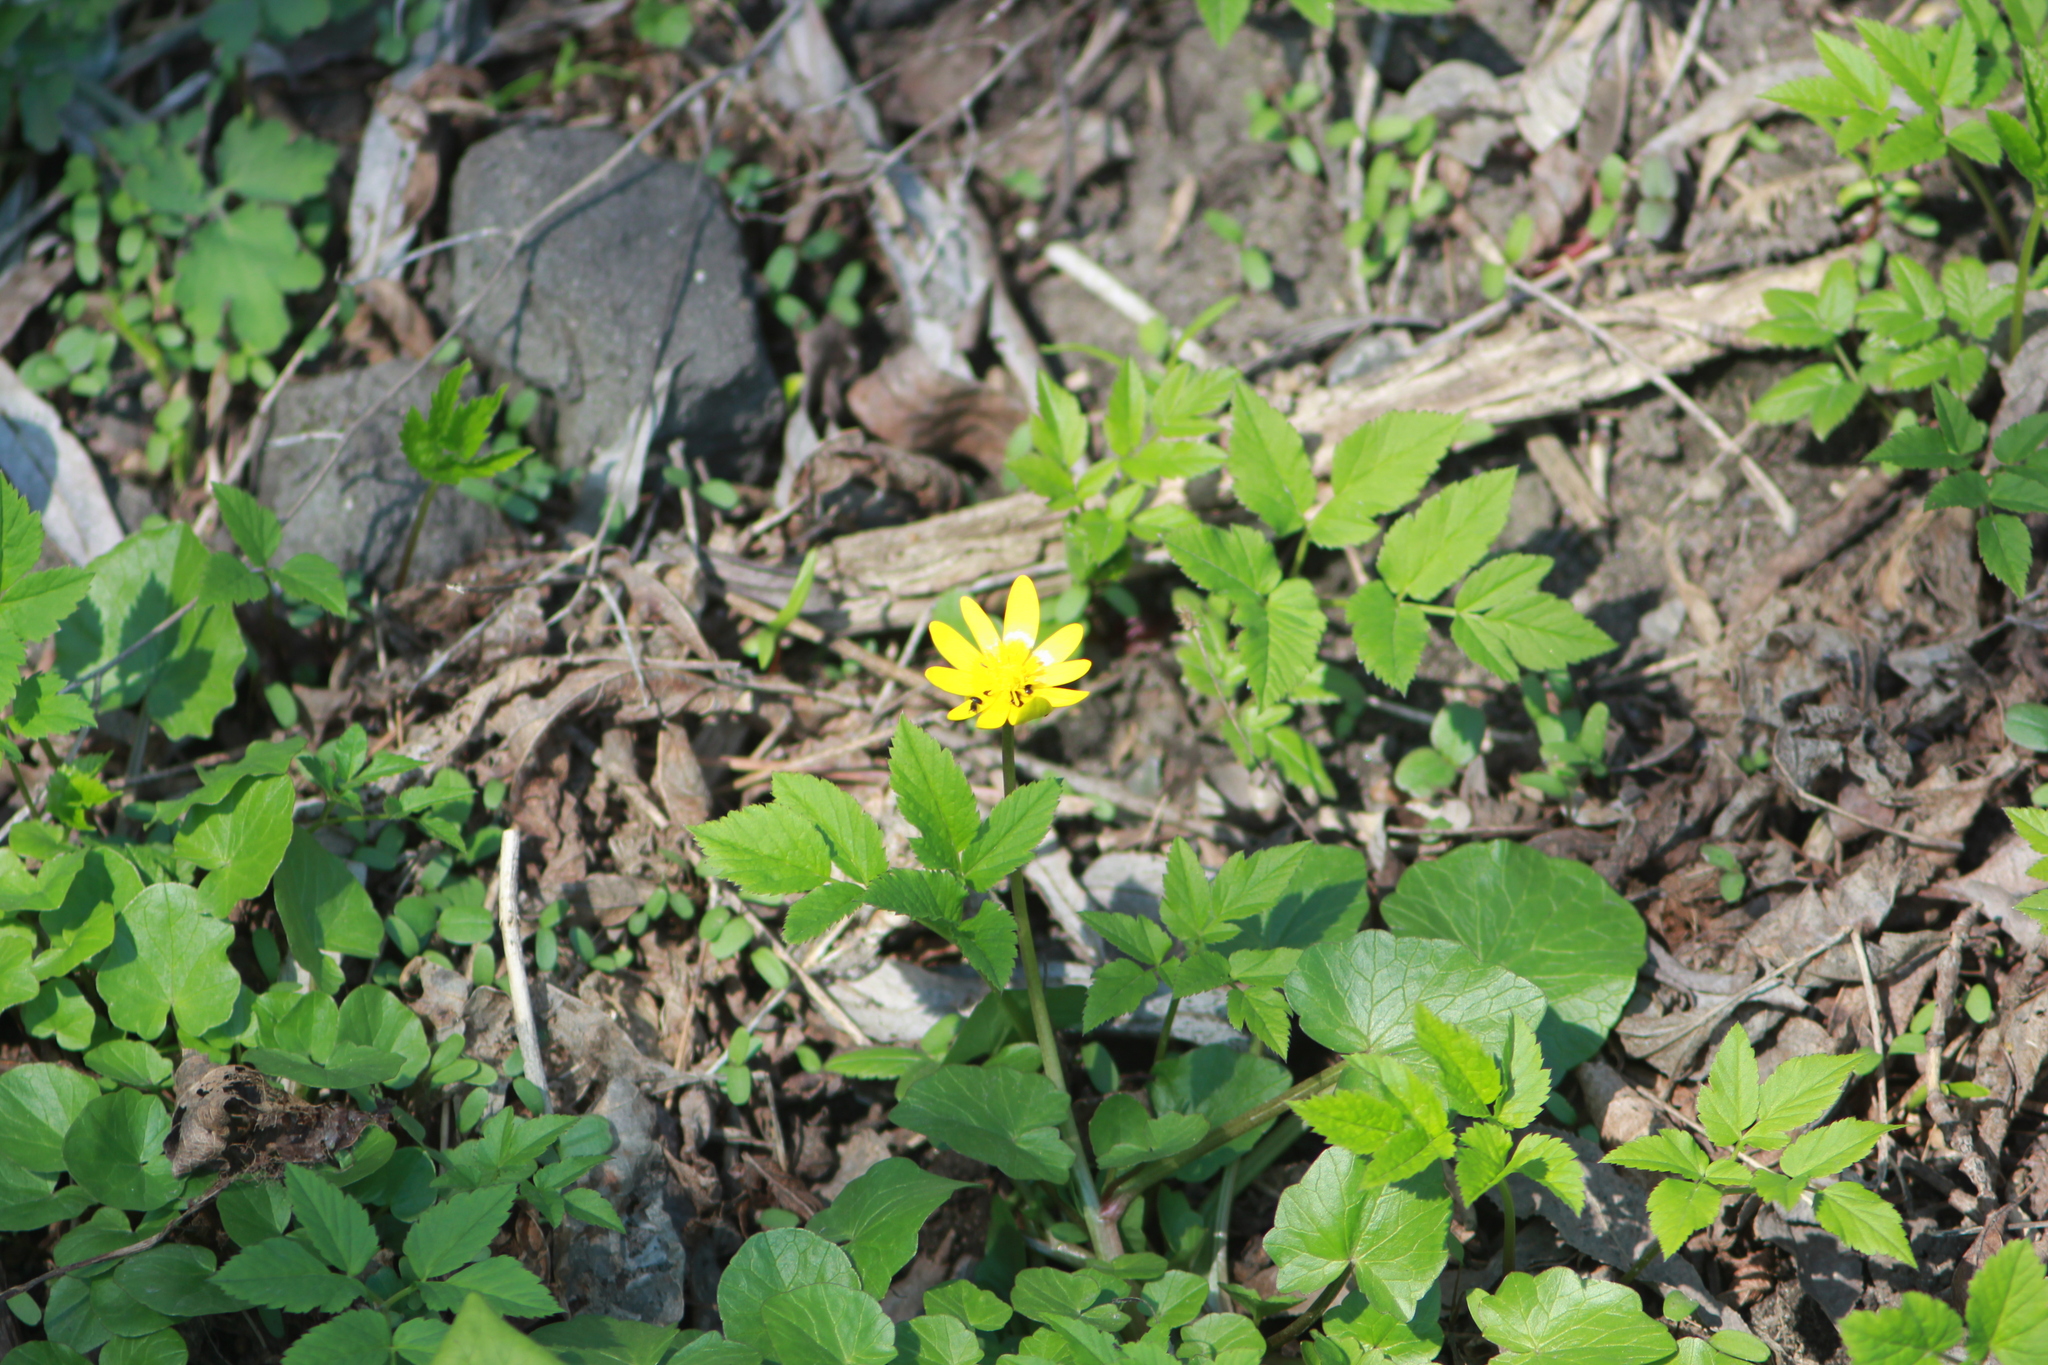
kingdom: Plantae
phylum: Tracheophyta
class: Magnoliopsida
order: Ranunculales
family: Ranunculaceae
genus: Ficaria
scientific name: Ficaria verna
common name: Lesser celandine
